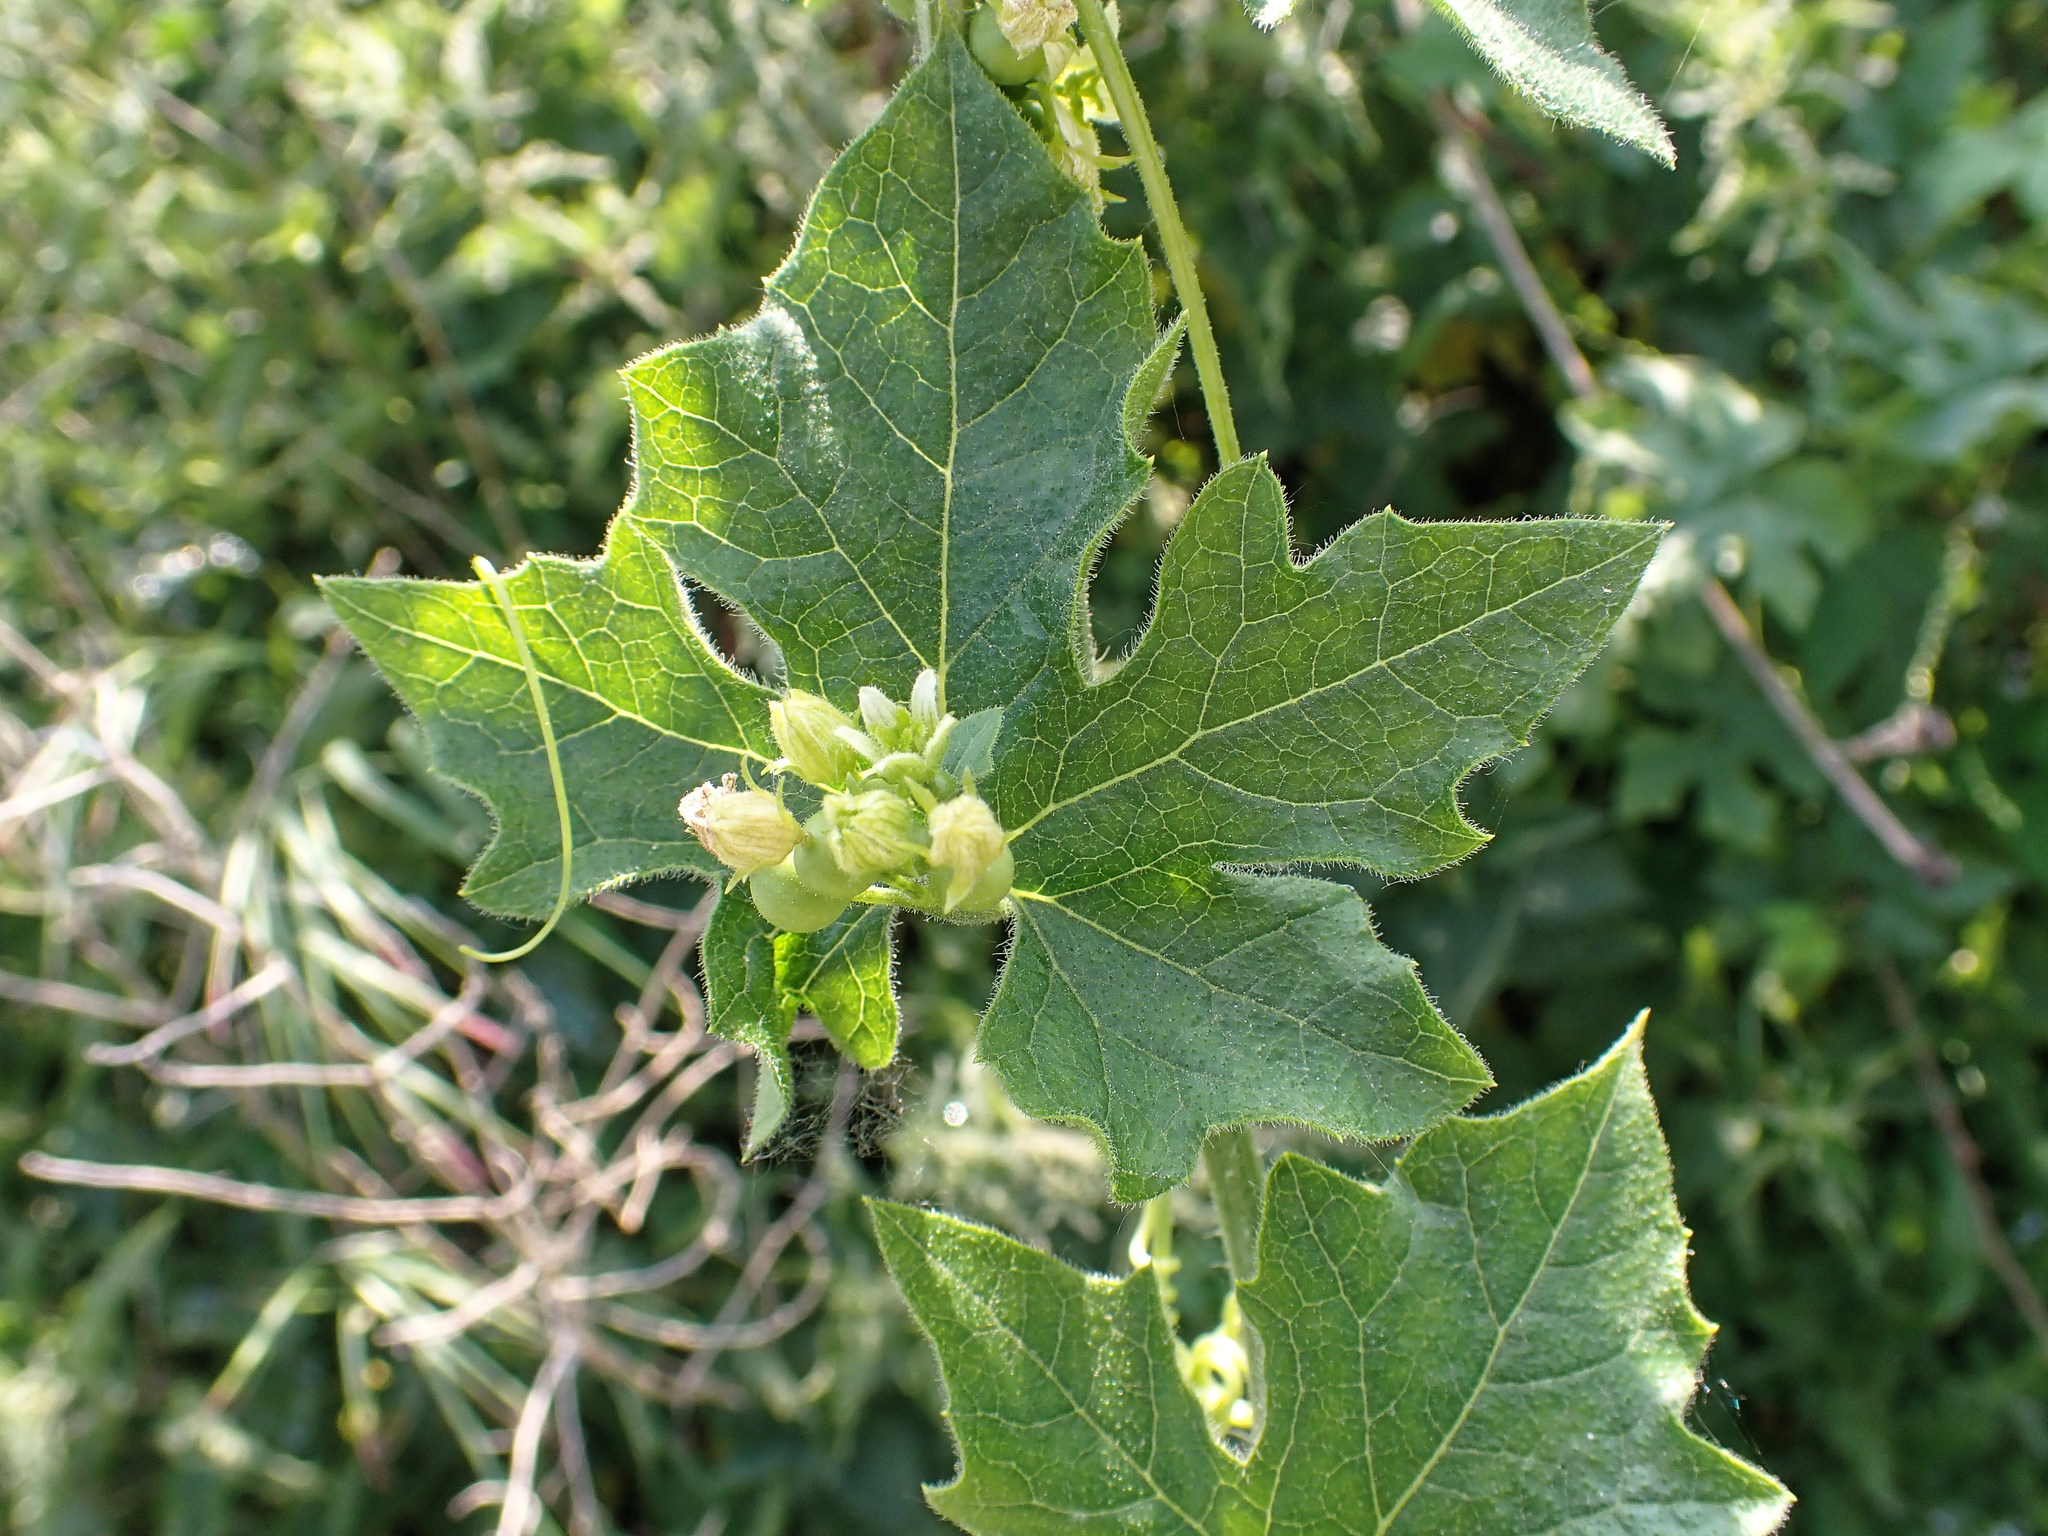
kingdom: Plantae
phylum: Tracheophyta
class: Magnoliopsida
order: Cucurbitales
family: Cucurbitaceae
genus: Bryonia
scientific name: Bryonia cretica
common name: Cretan bryony
